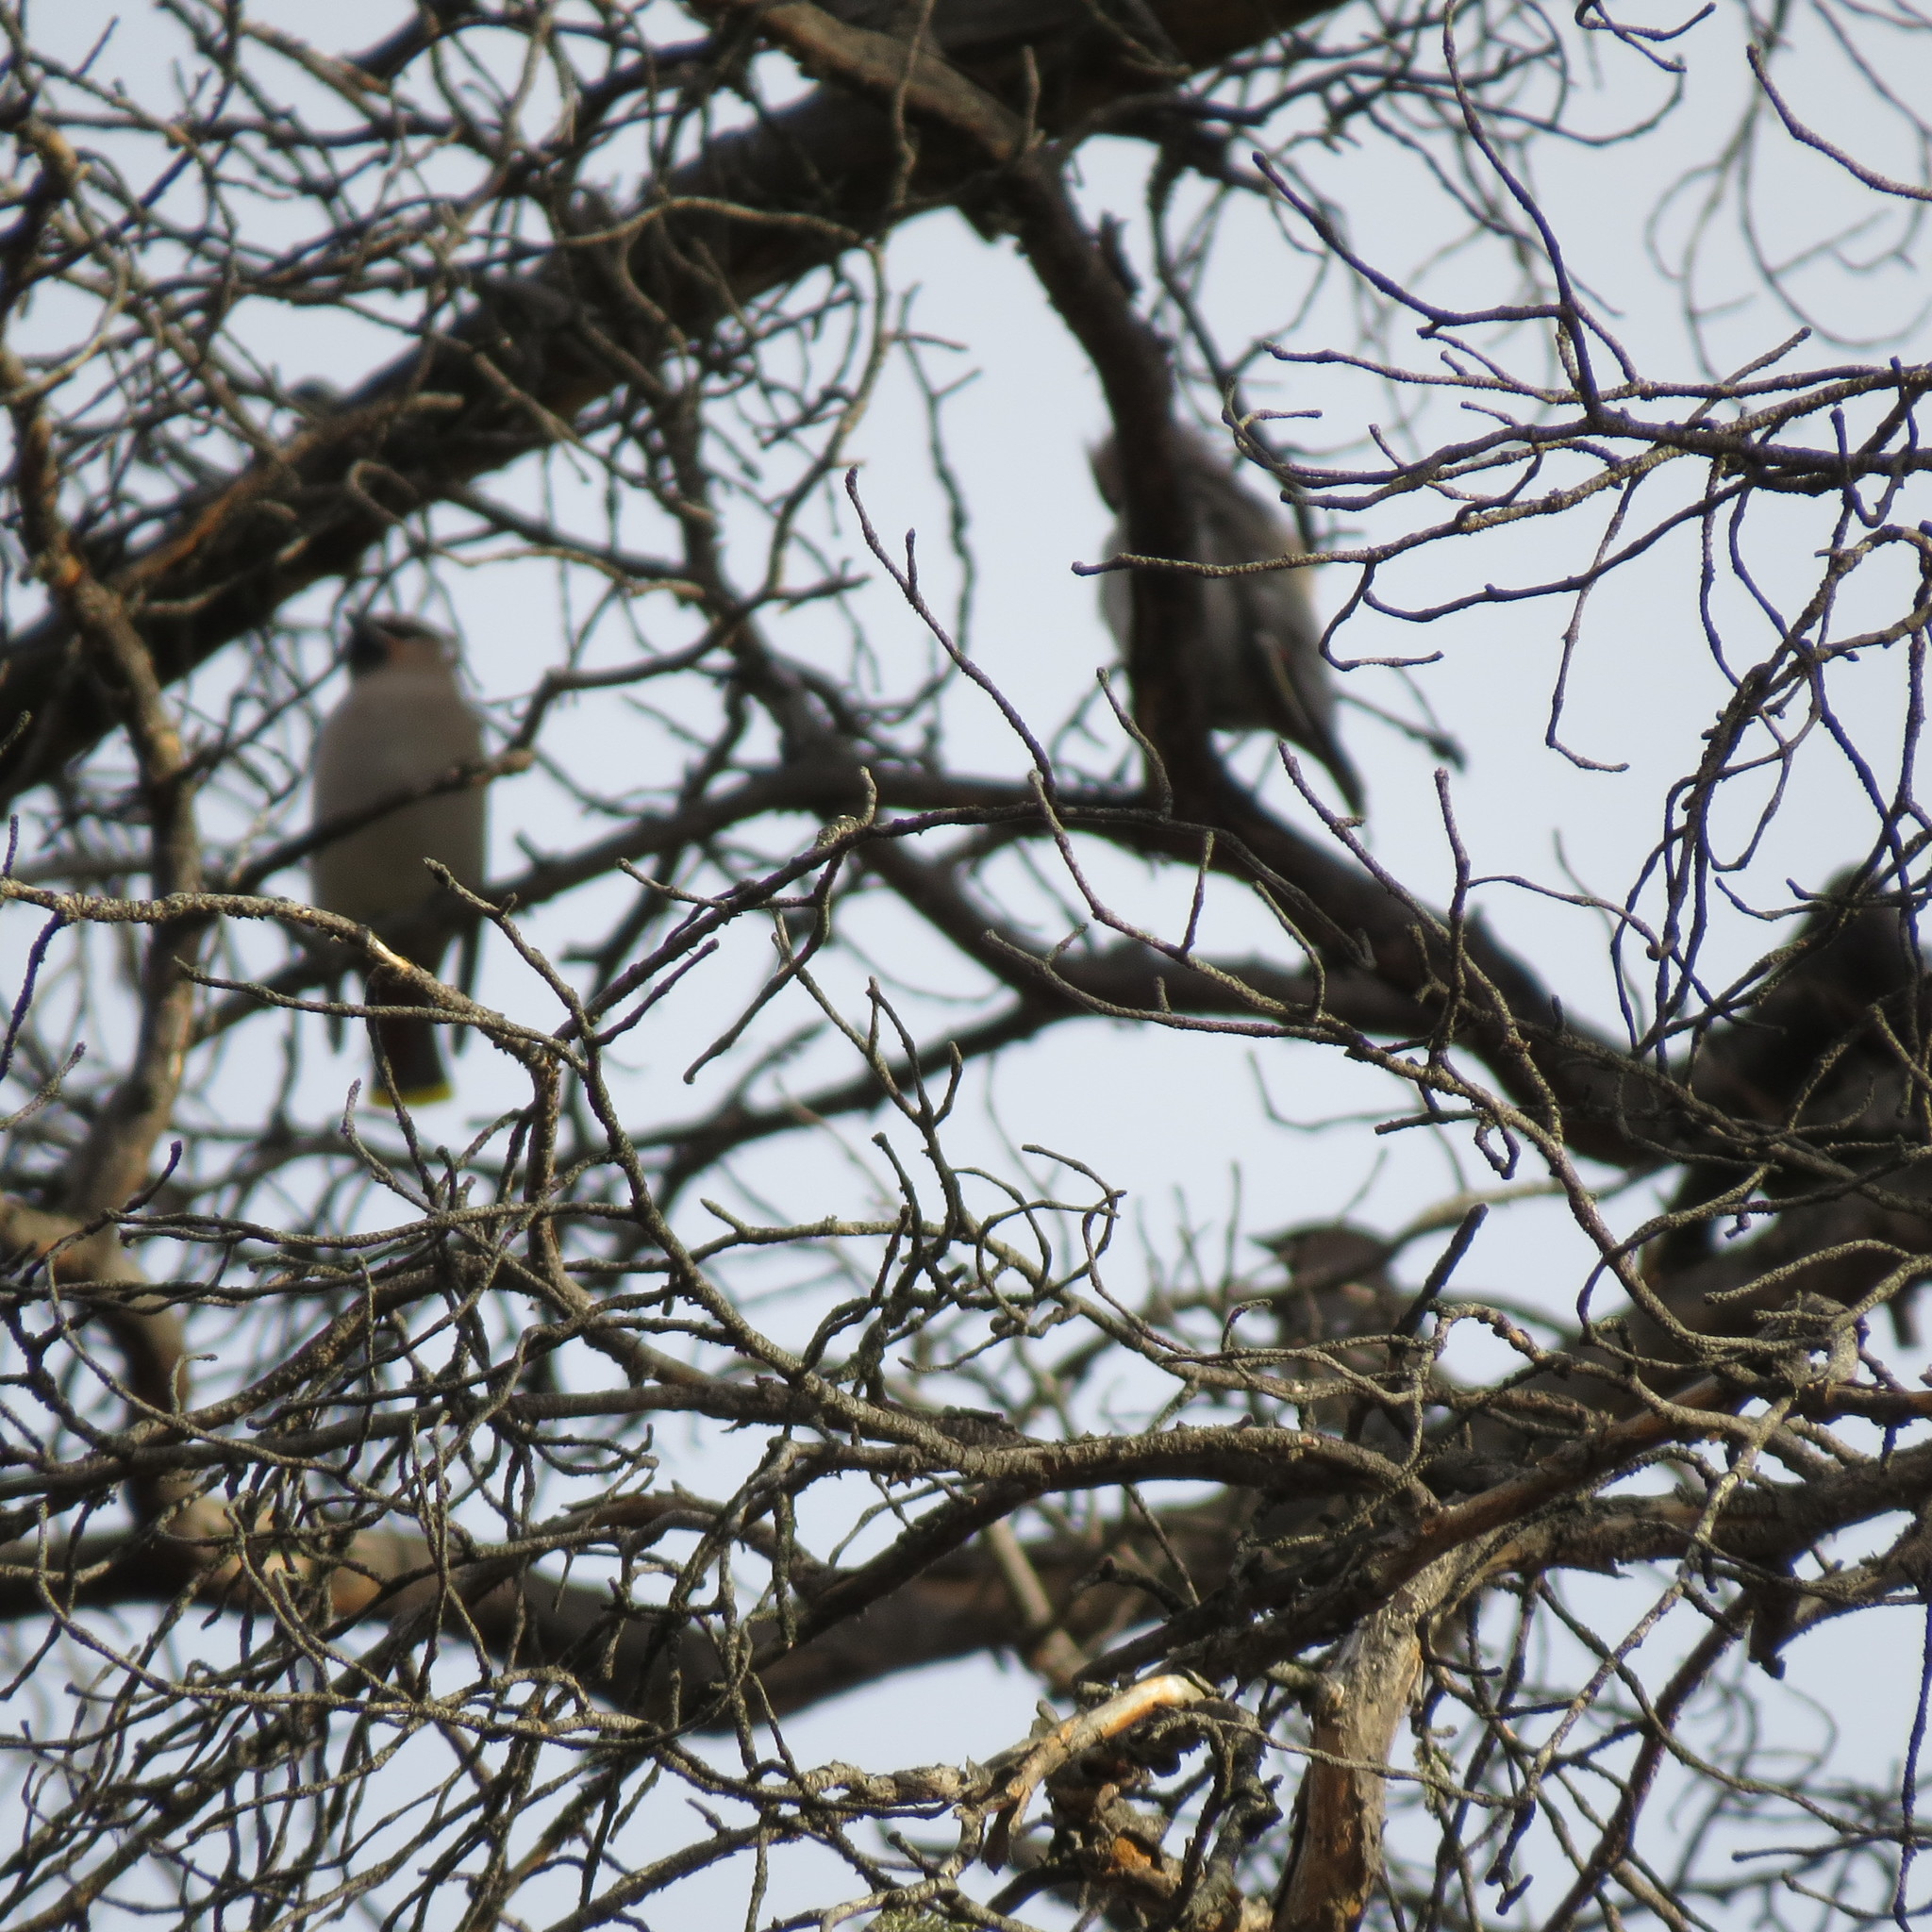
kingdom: Animalia
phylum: Chordata
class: Aves
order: Passeriformes
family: Bombycillidae
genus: Bombycilla
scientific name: Bombycilla garrulus
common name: Bohemian waxwing
